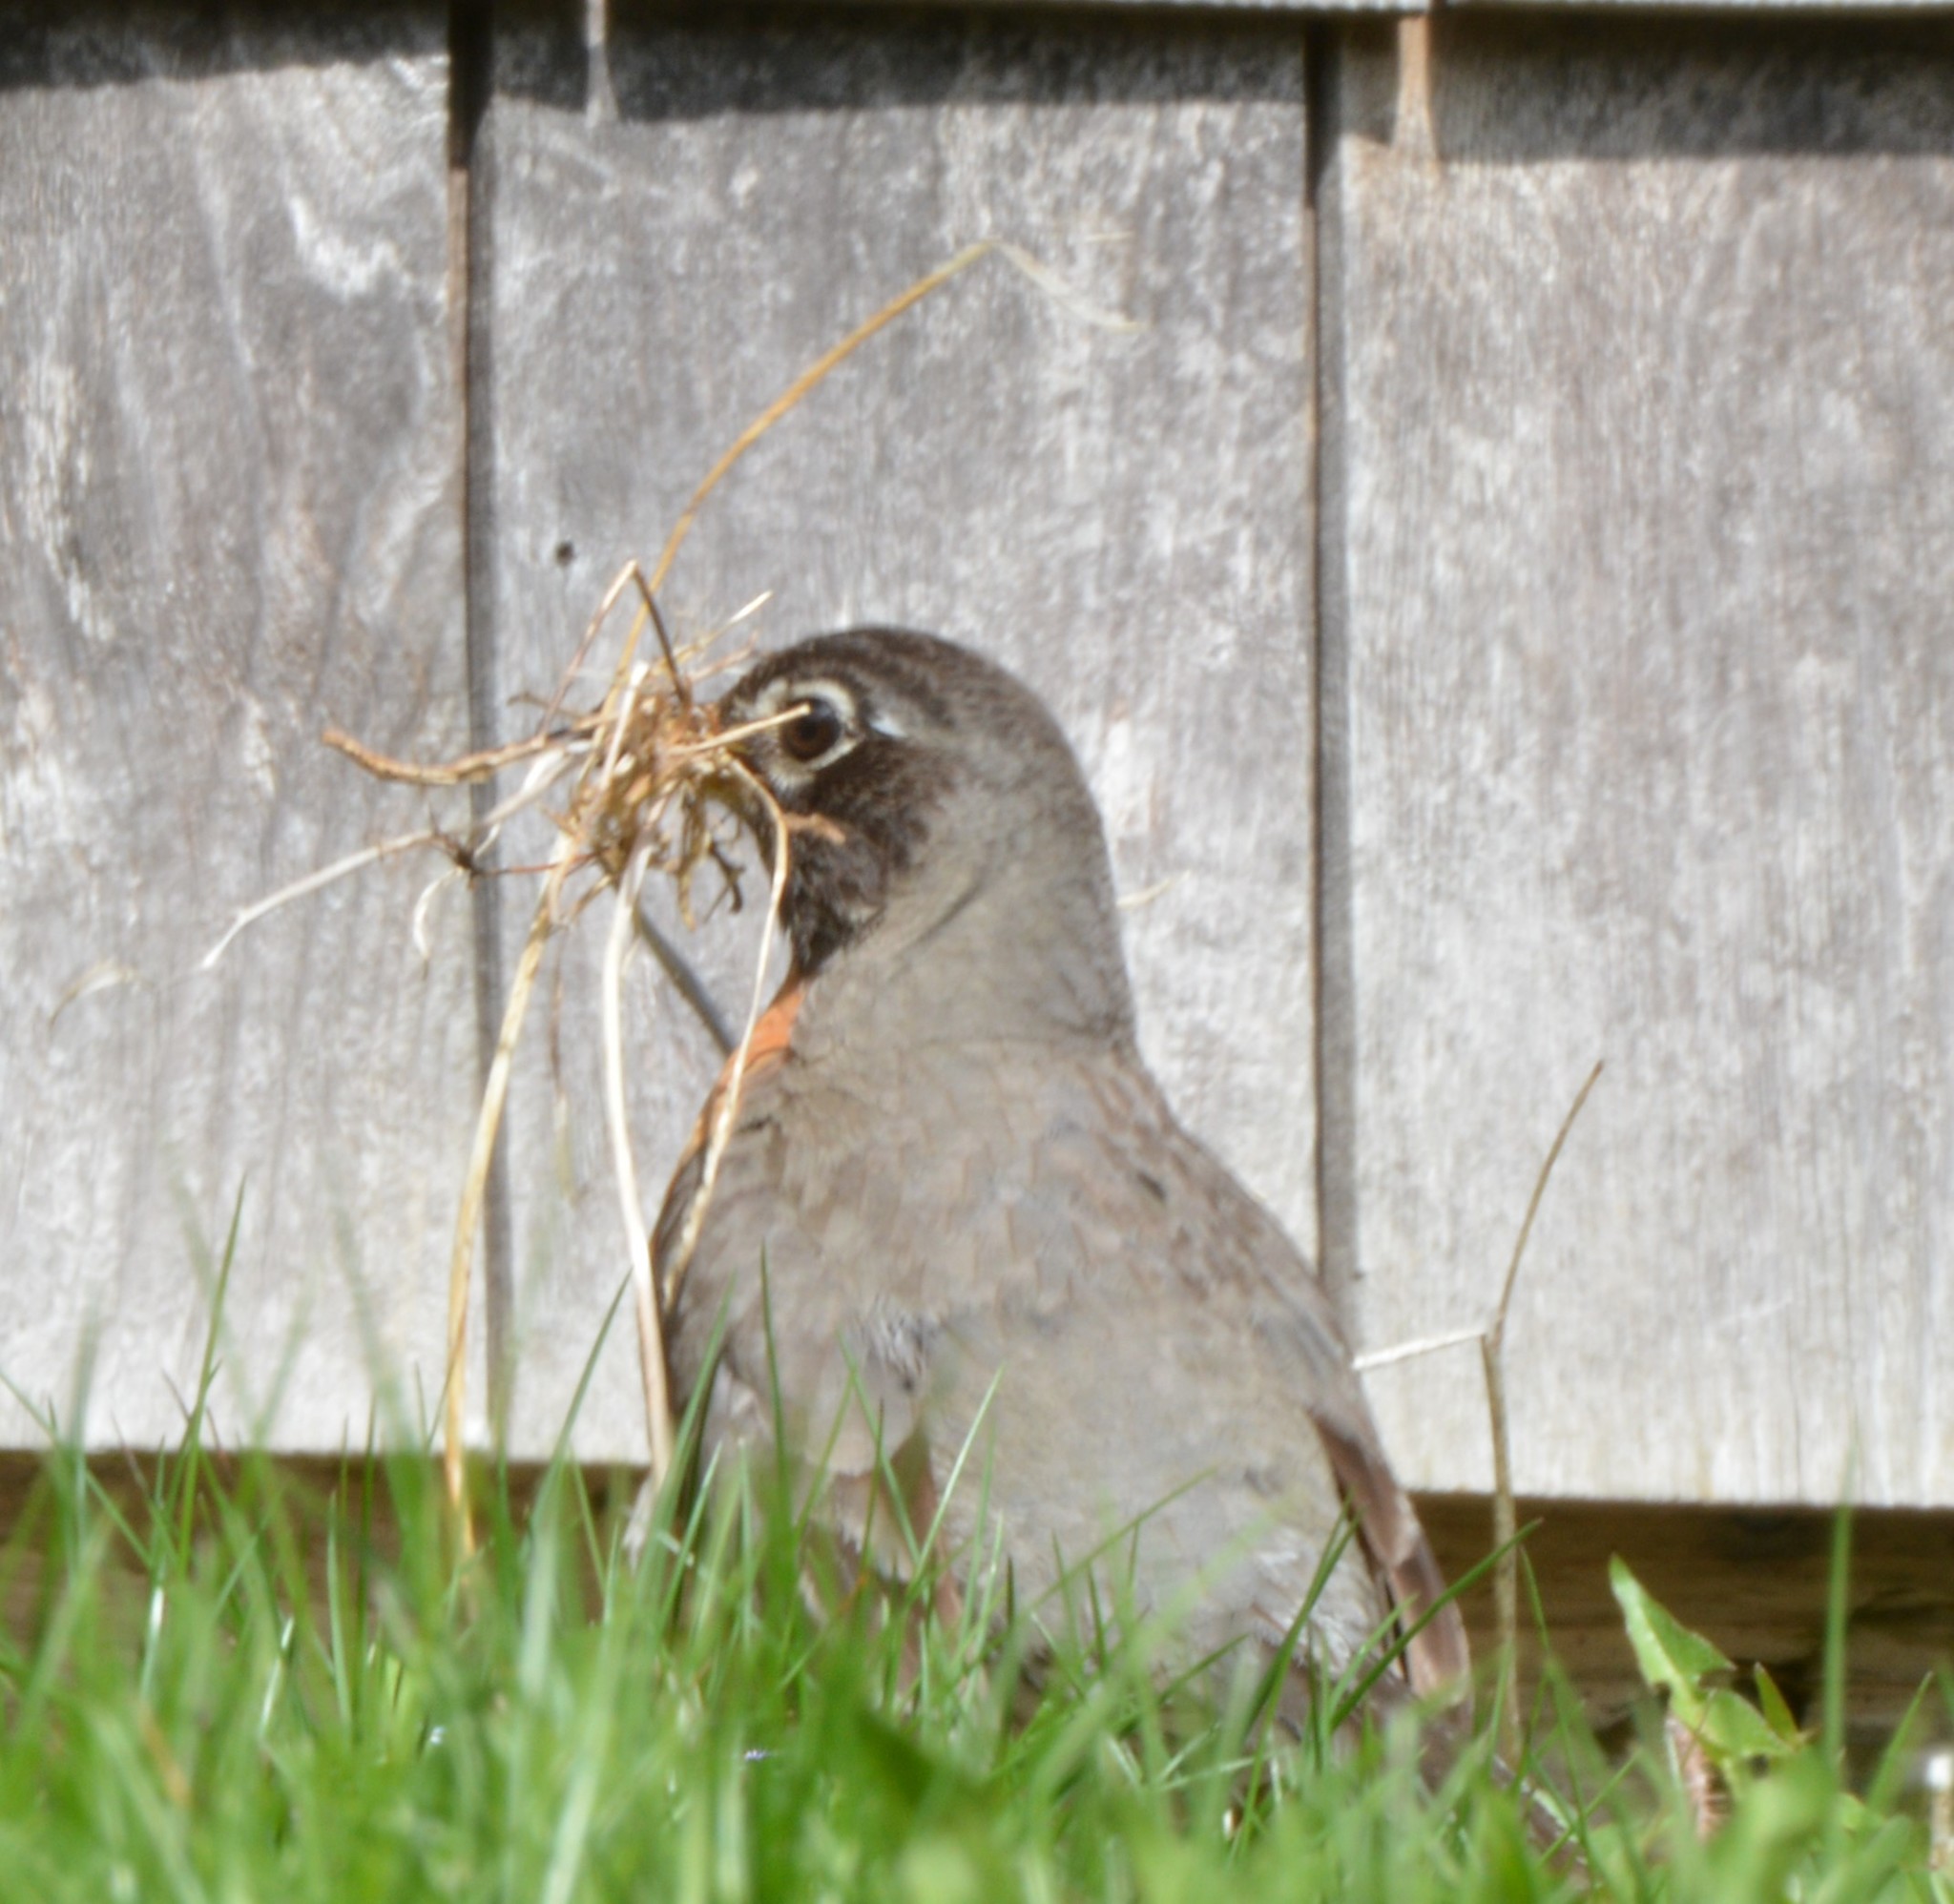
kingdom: Animalia
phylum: Chordata
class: Aves
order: Passeriformes
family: Turdidae
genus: Turdus
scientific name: Turdus migratorius
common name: American robin
